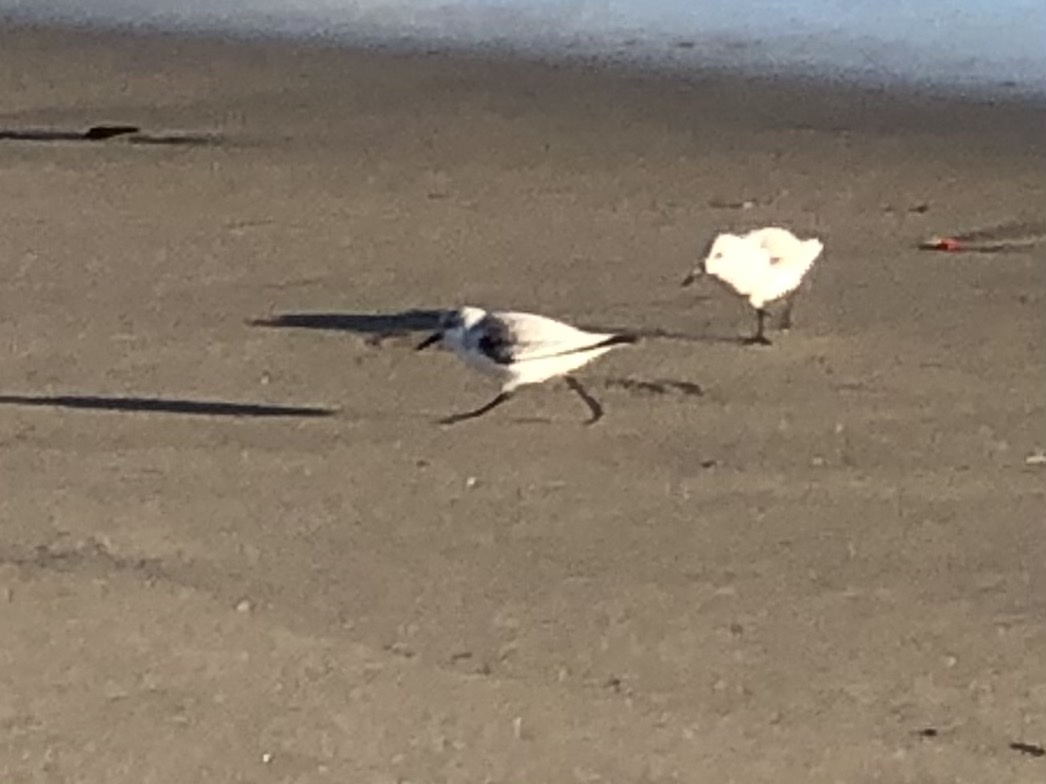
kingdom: Animalia
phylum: Chordata
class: Aves
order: Charadriiformes
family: Scolopacidae
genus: Calidris
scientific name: Calidris alba
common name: Sanderling
